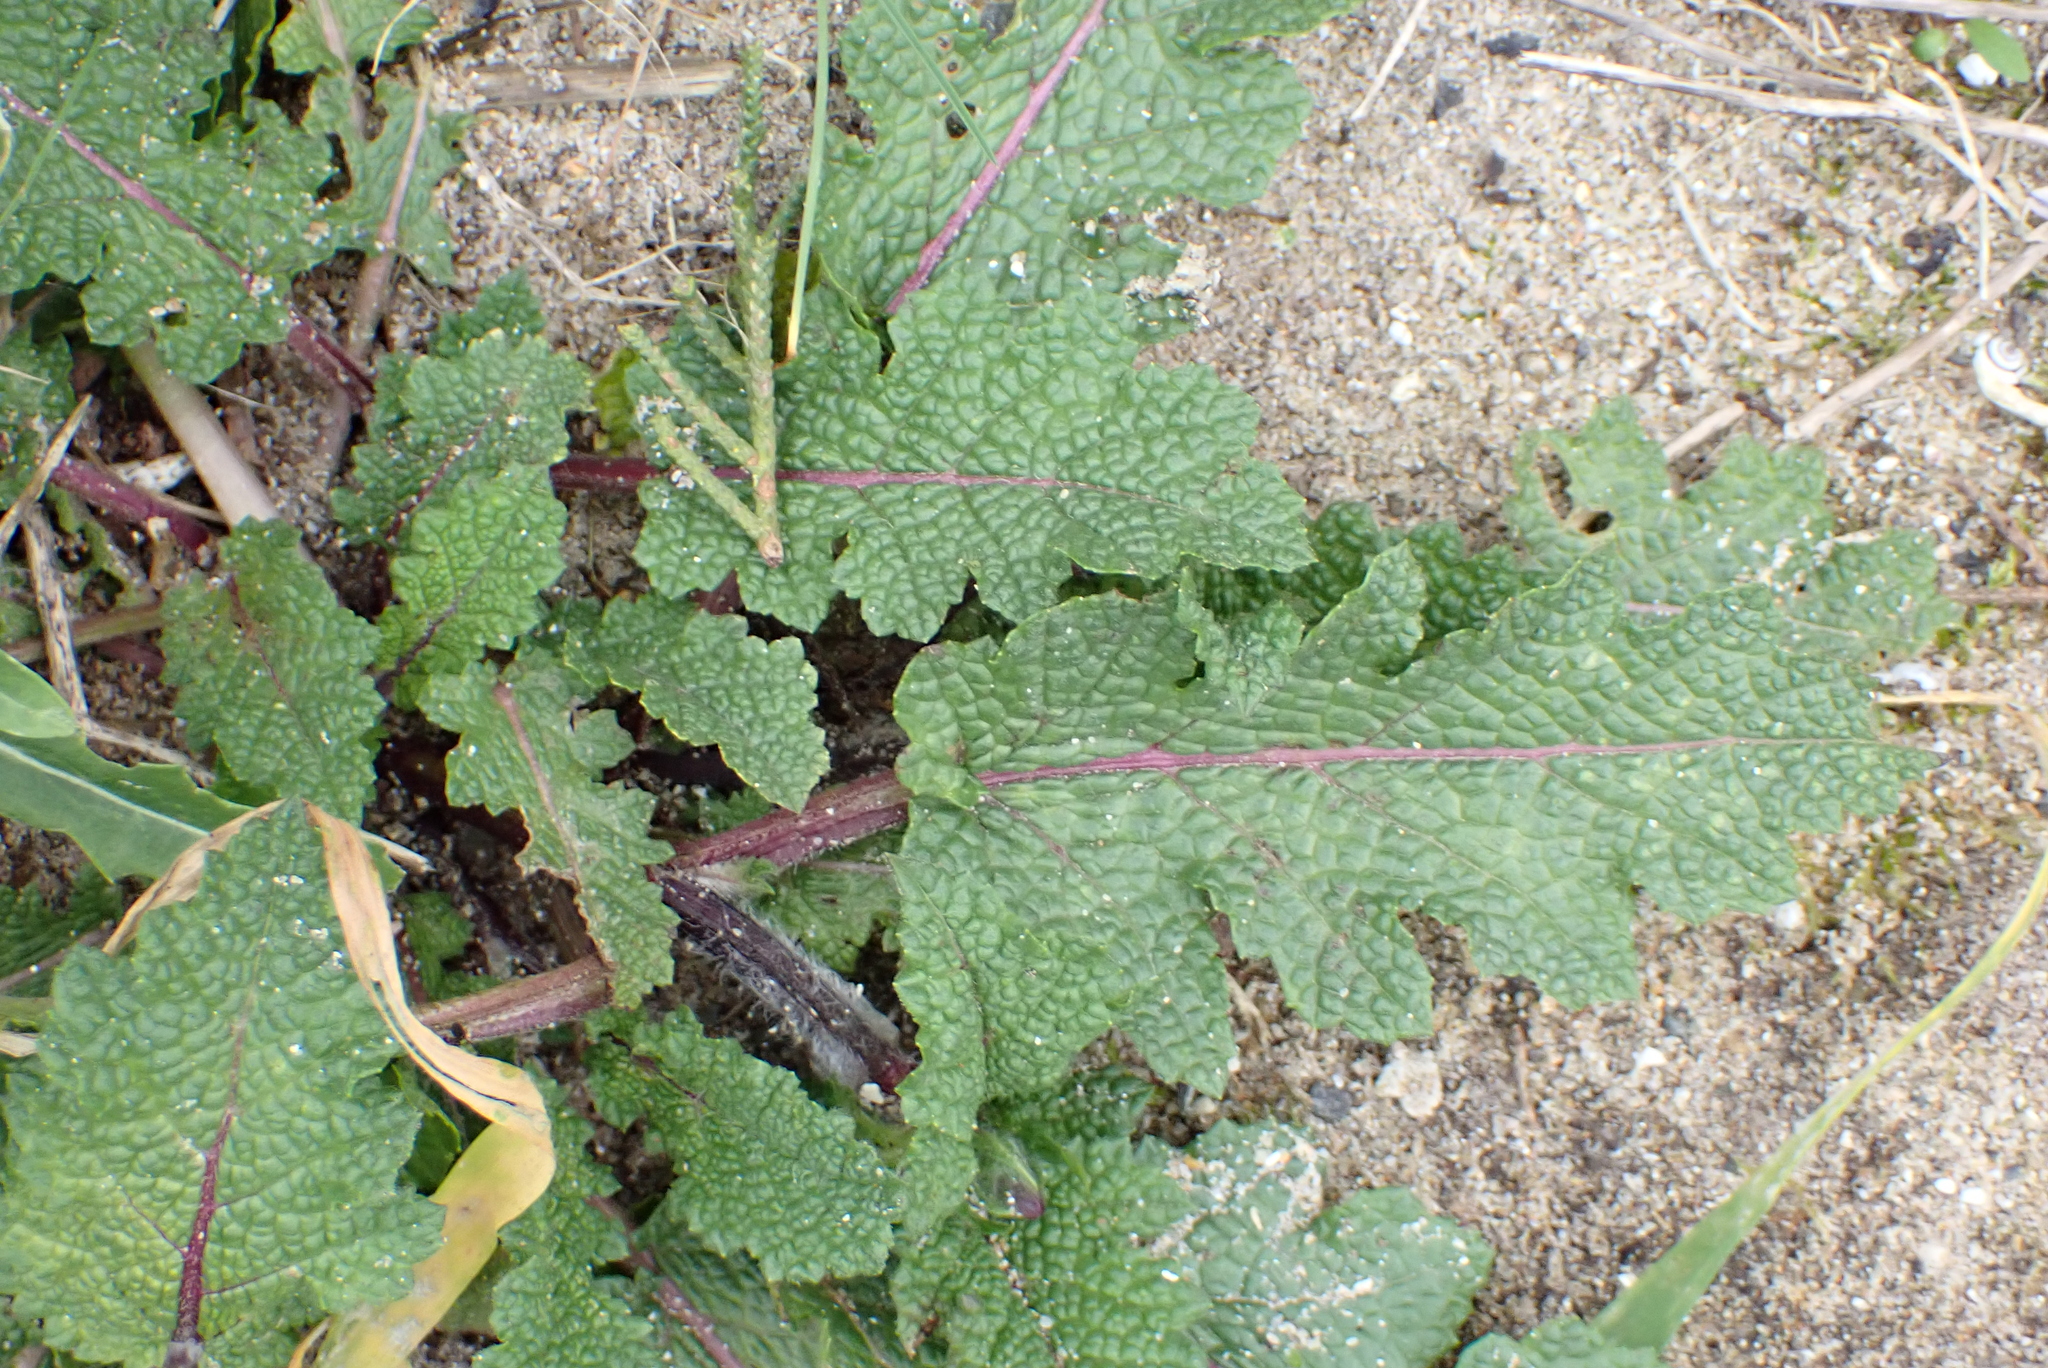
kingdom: Plantae
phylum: Tracheophyta
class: Magnoliopsida
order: Lamiales
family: Lamiaceae
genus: Salvia
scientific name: Salvia verbenaca
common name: Wild clary
